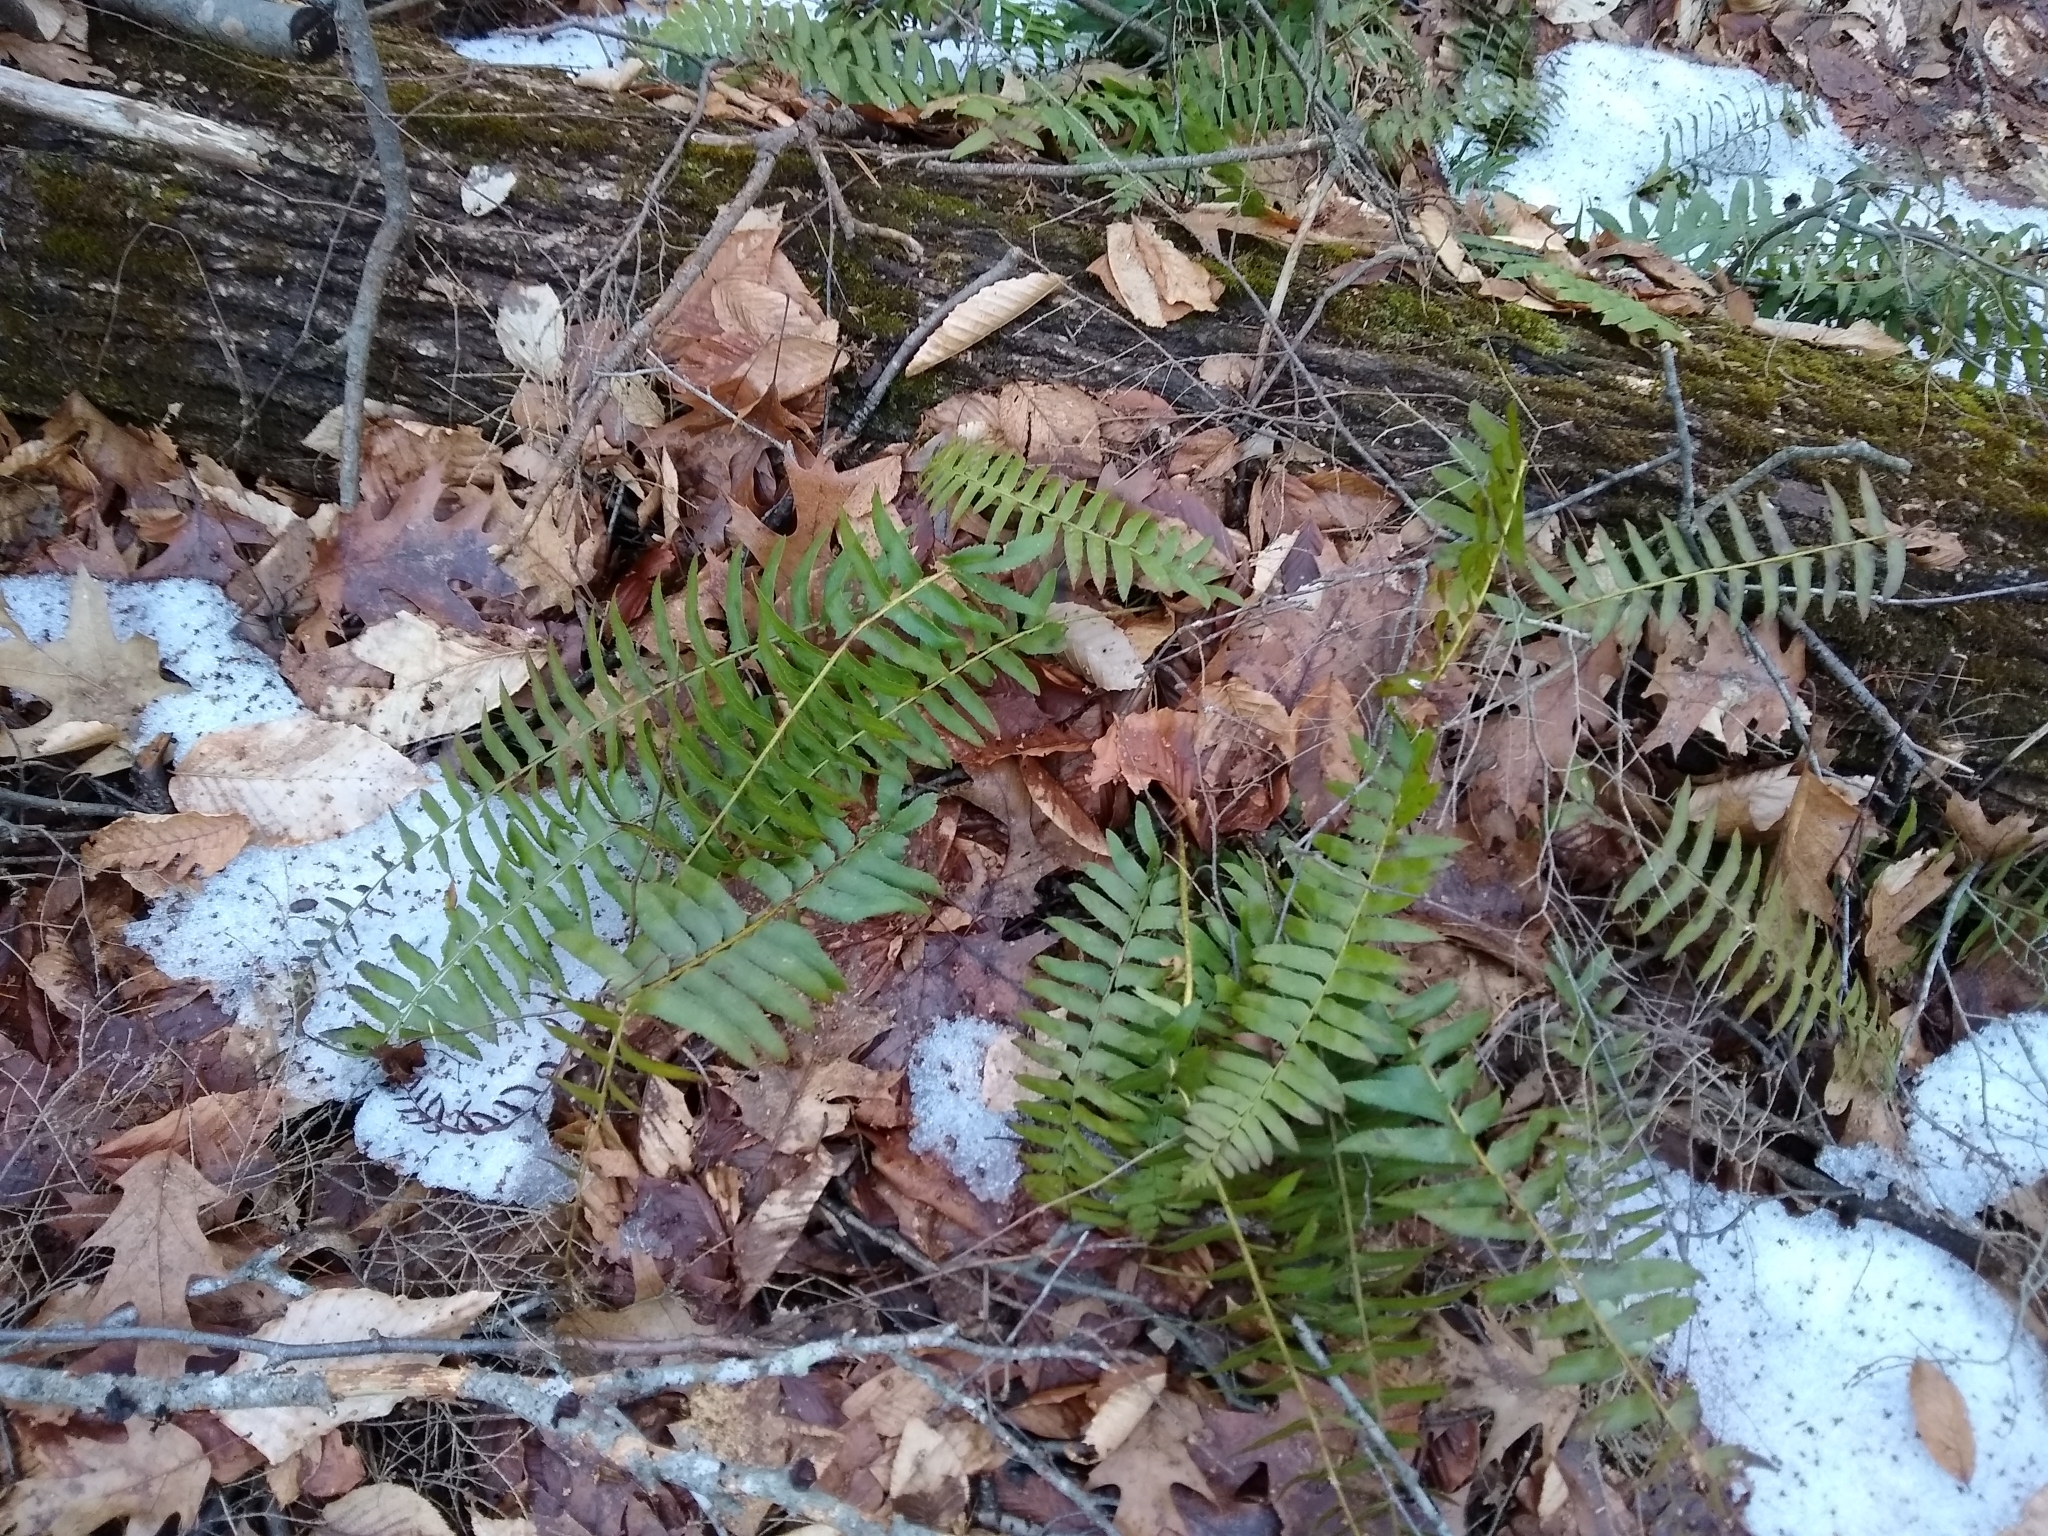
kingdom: Plantae
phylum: Tracheophyta
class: Polypodiopsida
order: Polypodiales
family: Dryopteridaceae
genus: Polystichum
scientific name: Polystichum acrostichoides
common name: Christmas fern
